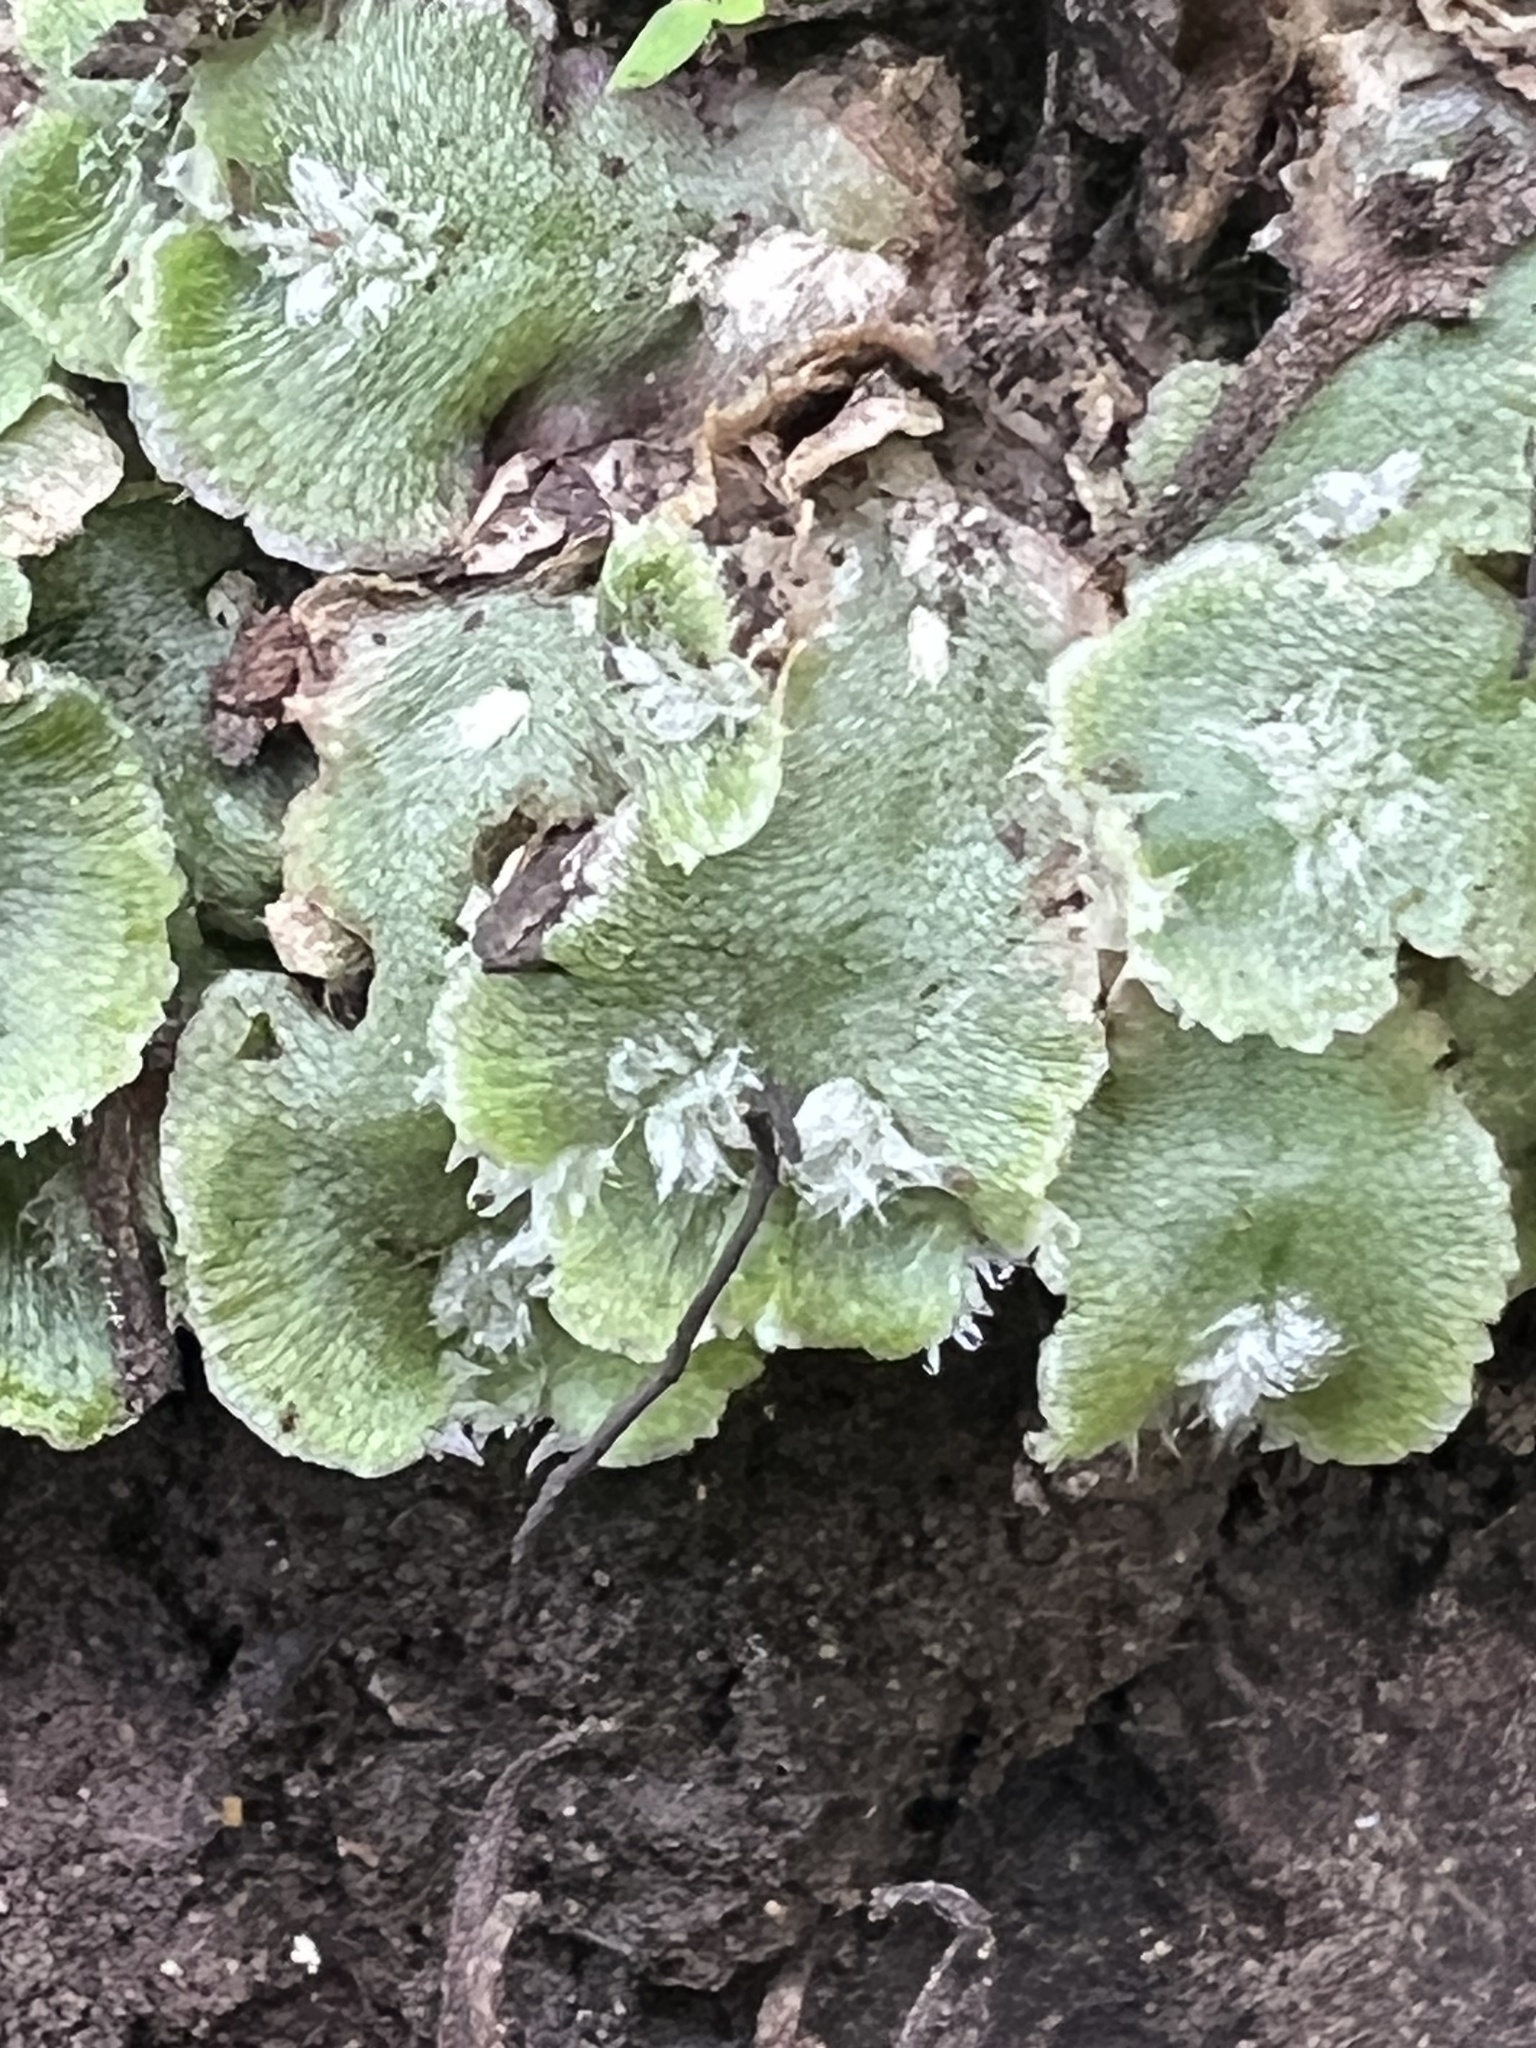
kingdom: Plantae
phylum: Marchantiophyta
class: Marchantiopsida
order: Marchantiales
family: Cleveaceae
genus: Clevea
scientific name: Clevea hyalina
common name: Hyaline liverwort
